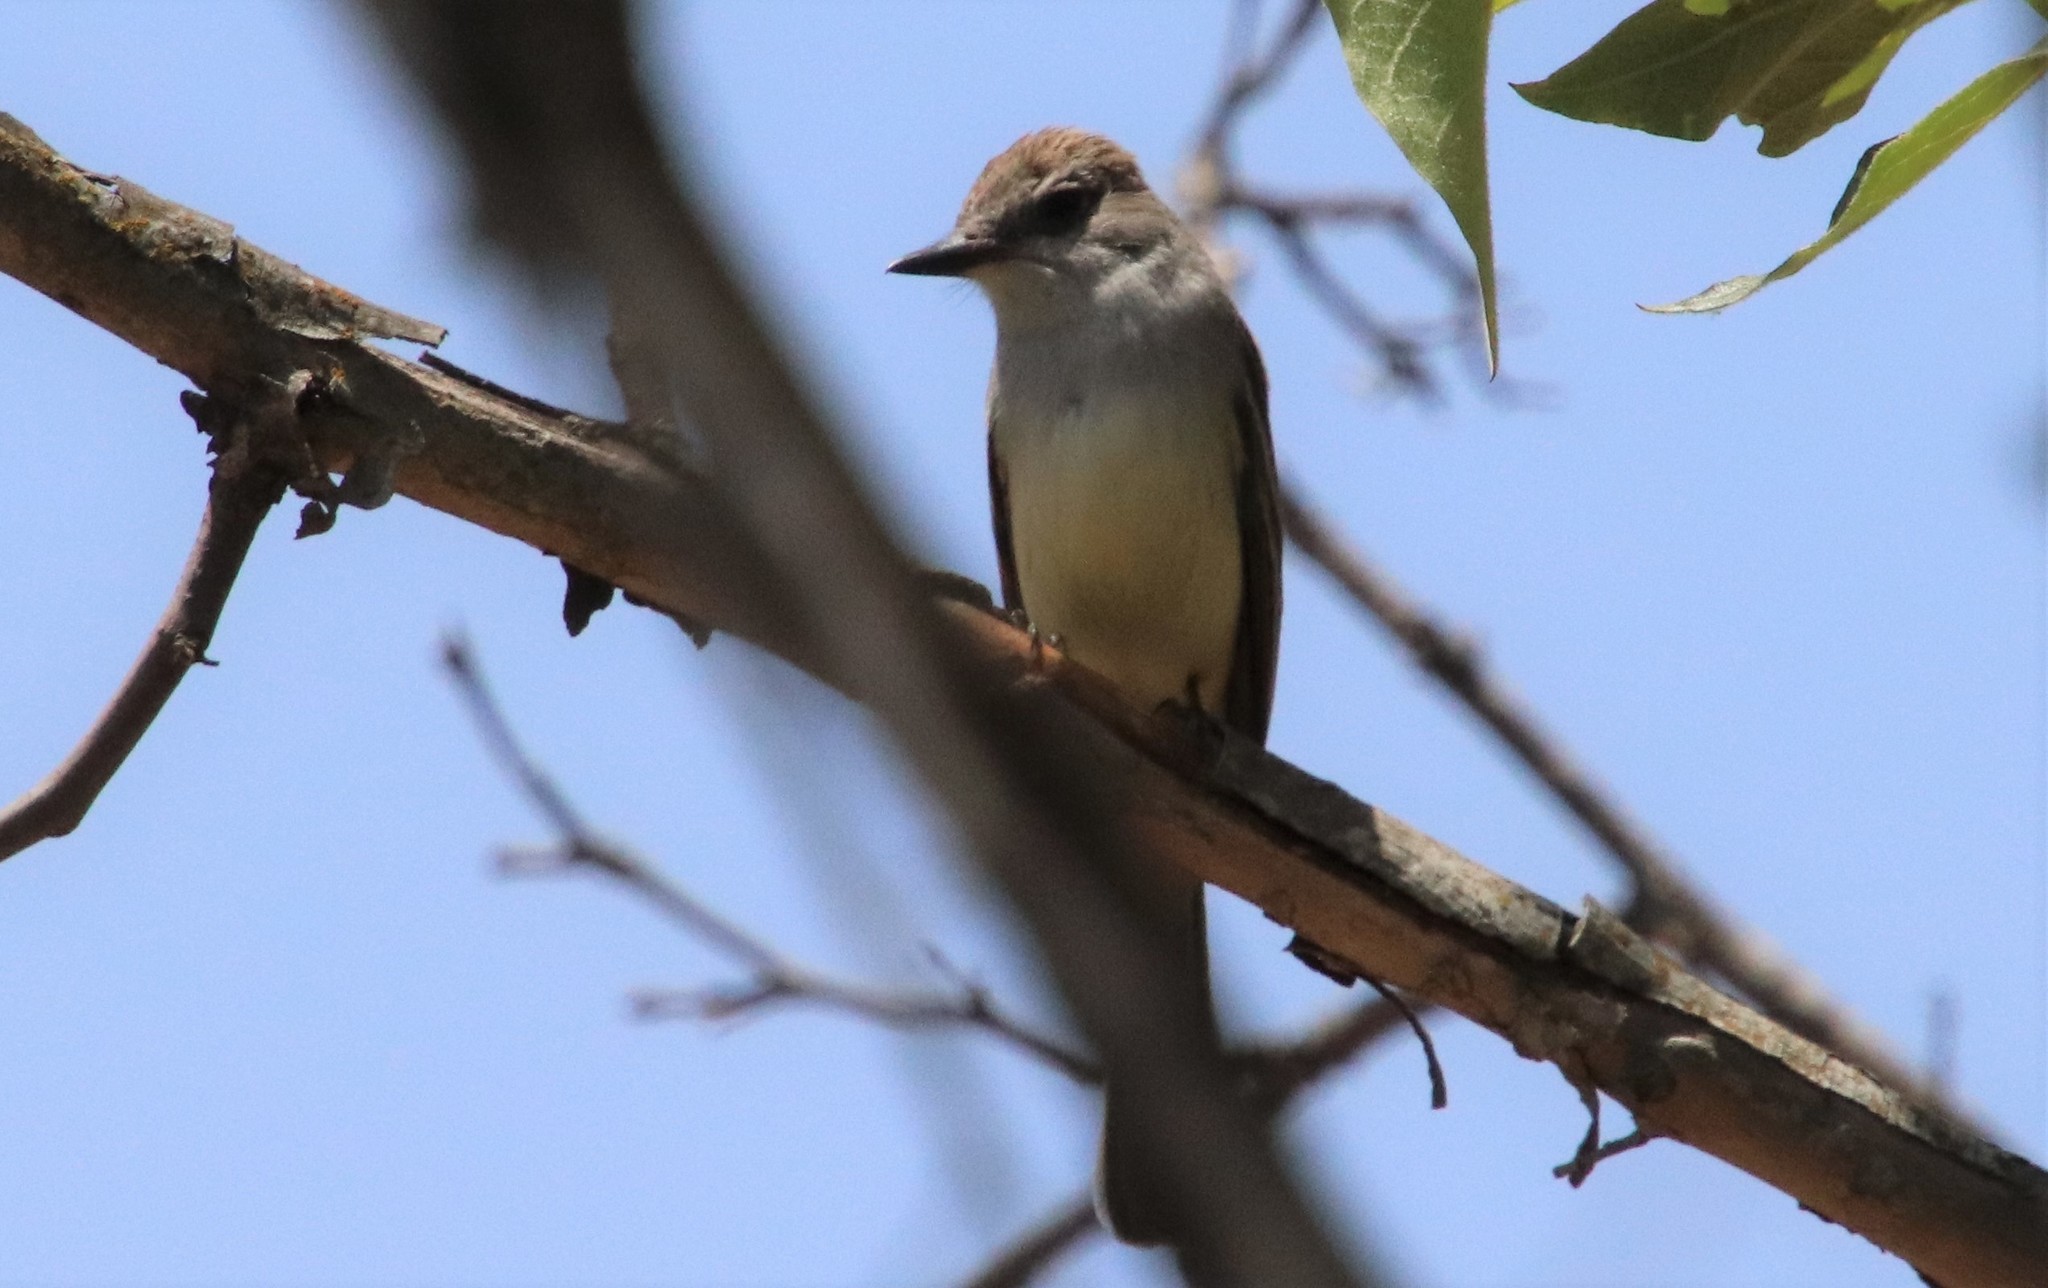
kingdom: Animalia
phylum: Chordata
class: Aves
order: Passeriformes
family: Tyrannidae
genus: Myiarchus
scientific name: Myiarchus cinerascens
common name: Ash-throated flycatcher
